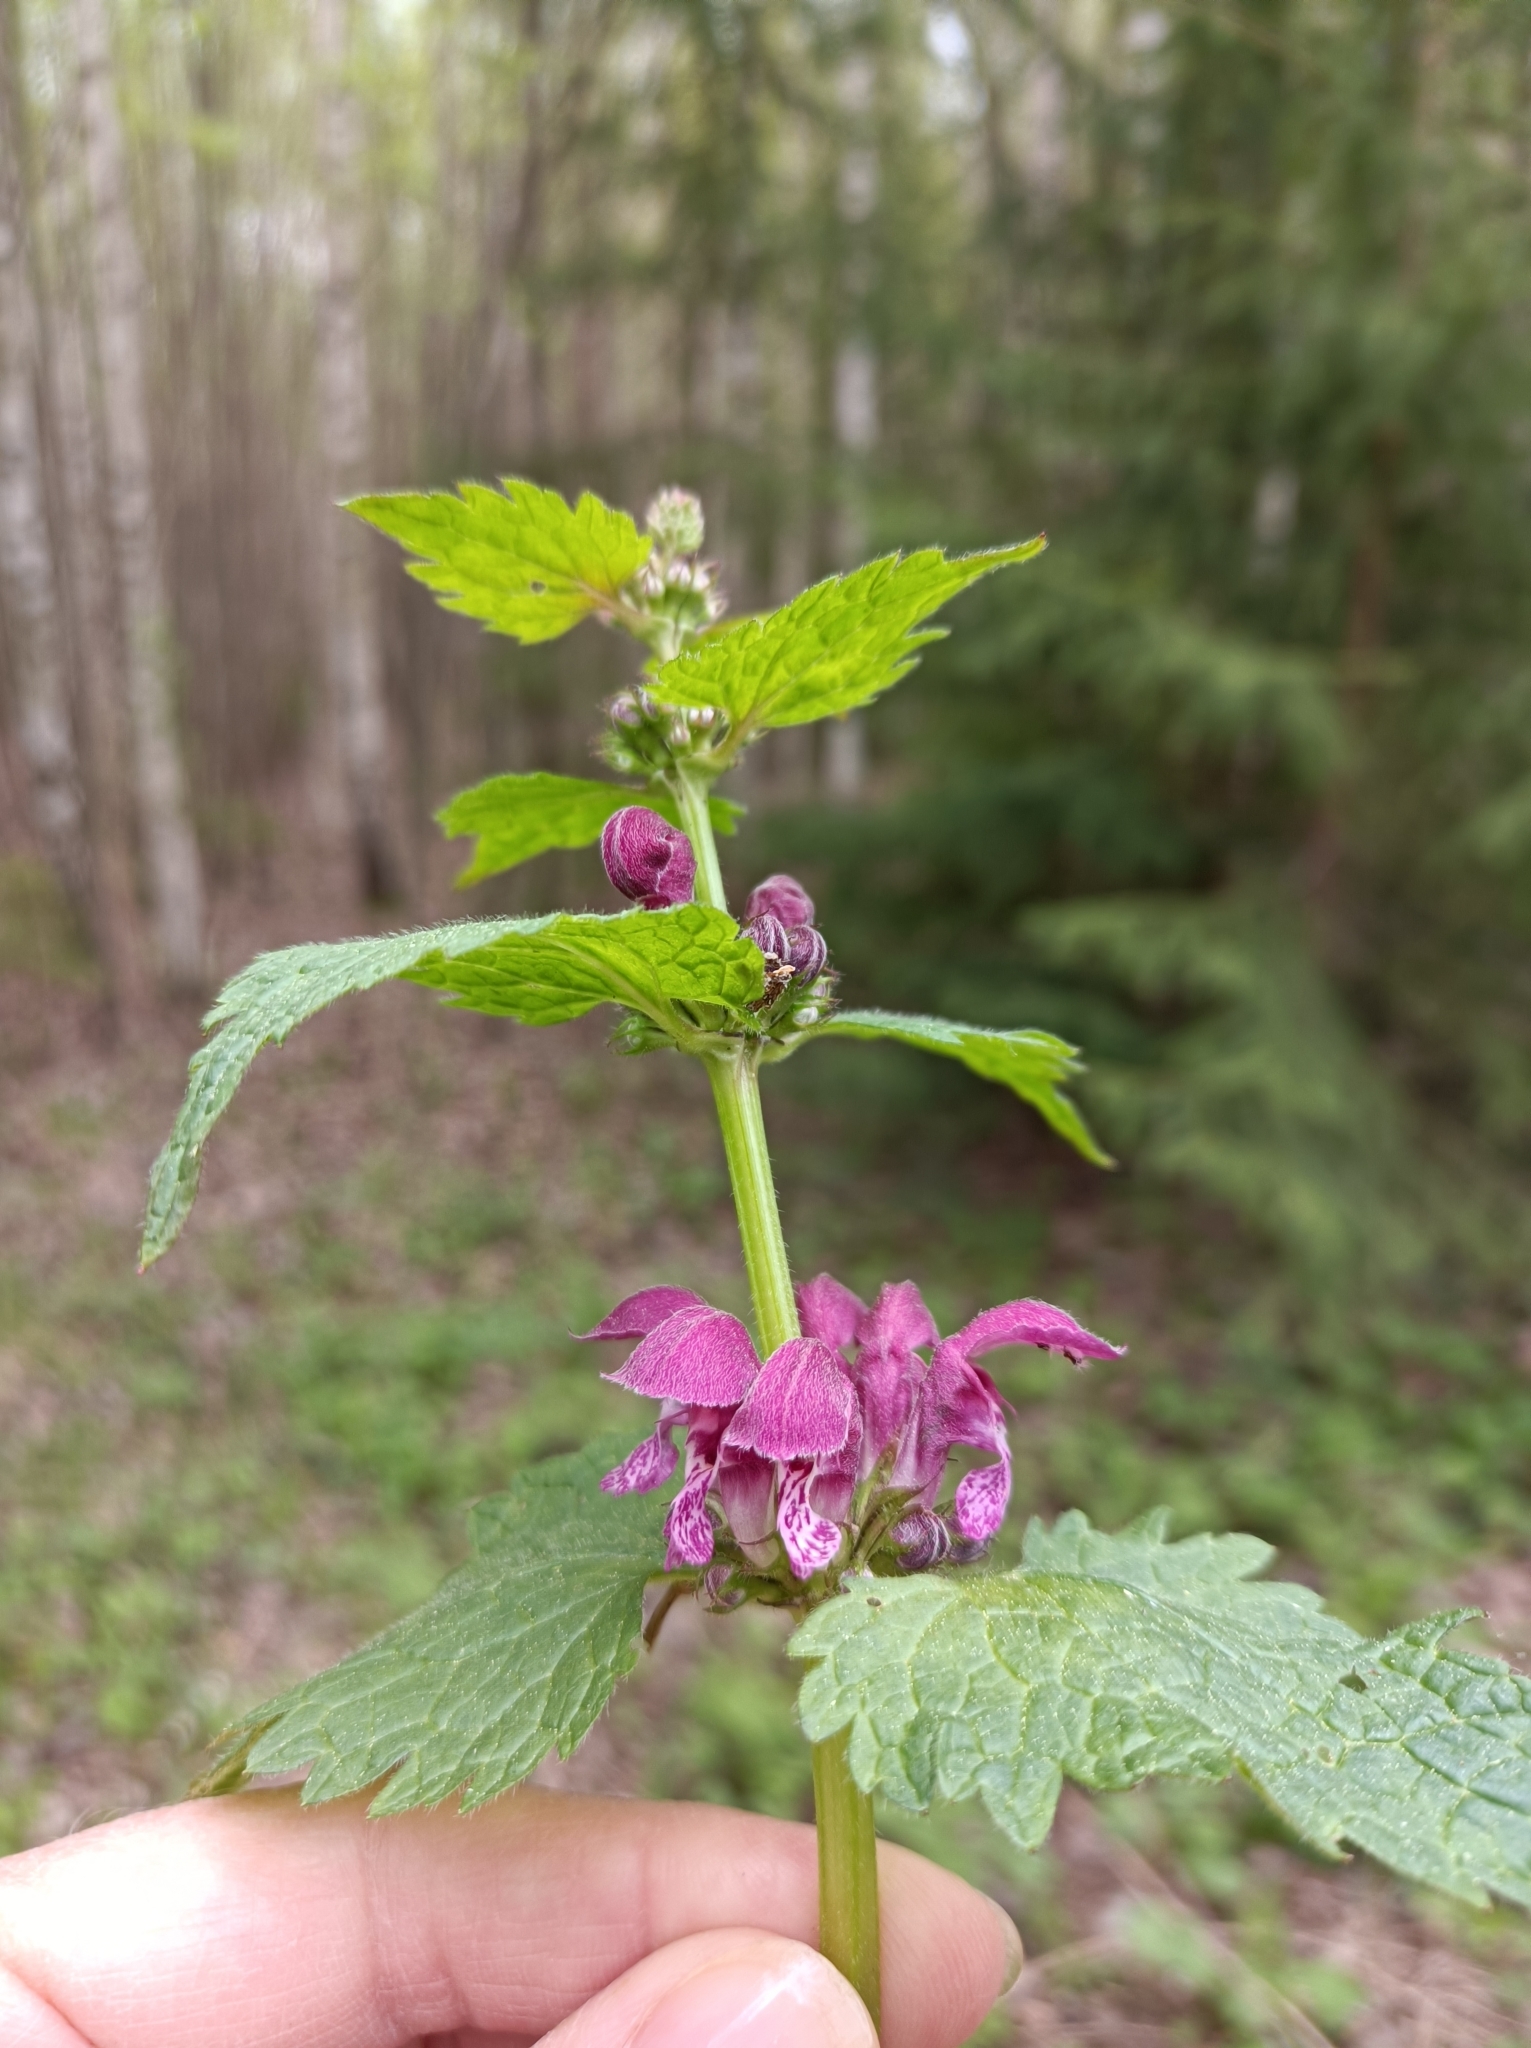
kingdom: Plantae
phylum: Tracheophyta
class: Magnoliopsida
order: Lamiales
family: Lamiaceae
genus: Lamium
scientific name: Lamium maculatum
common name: Spotted dead-nettle
